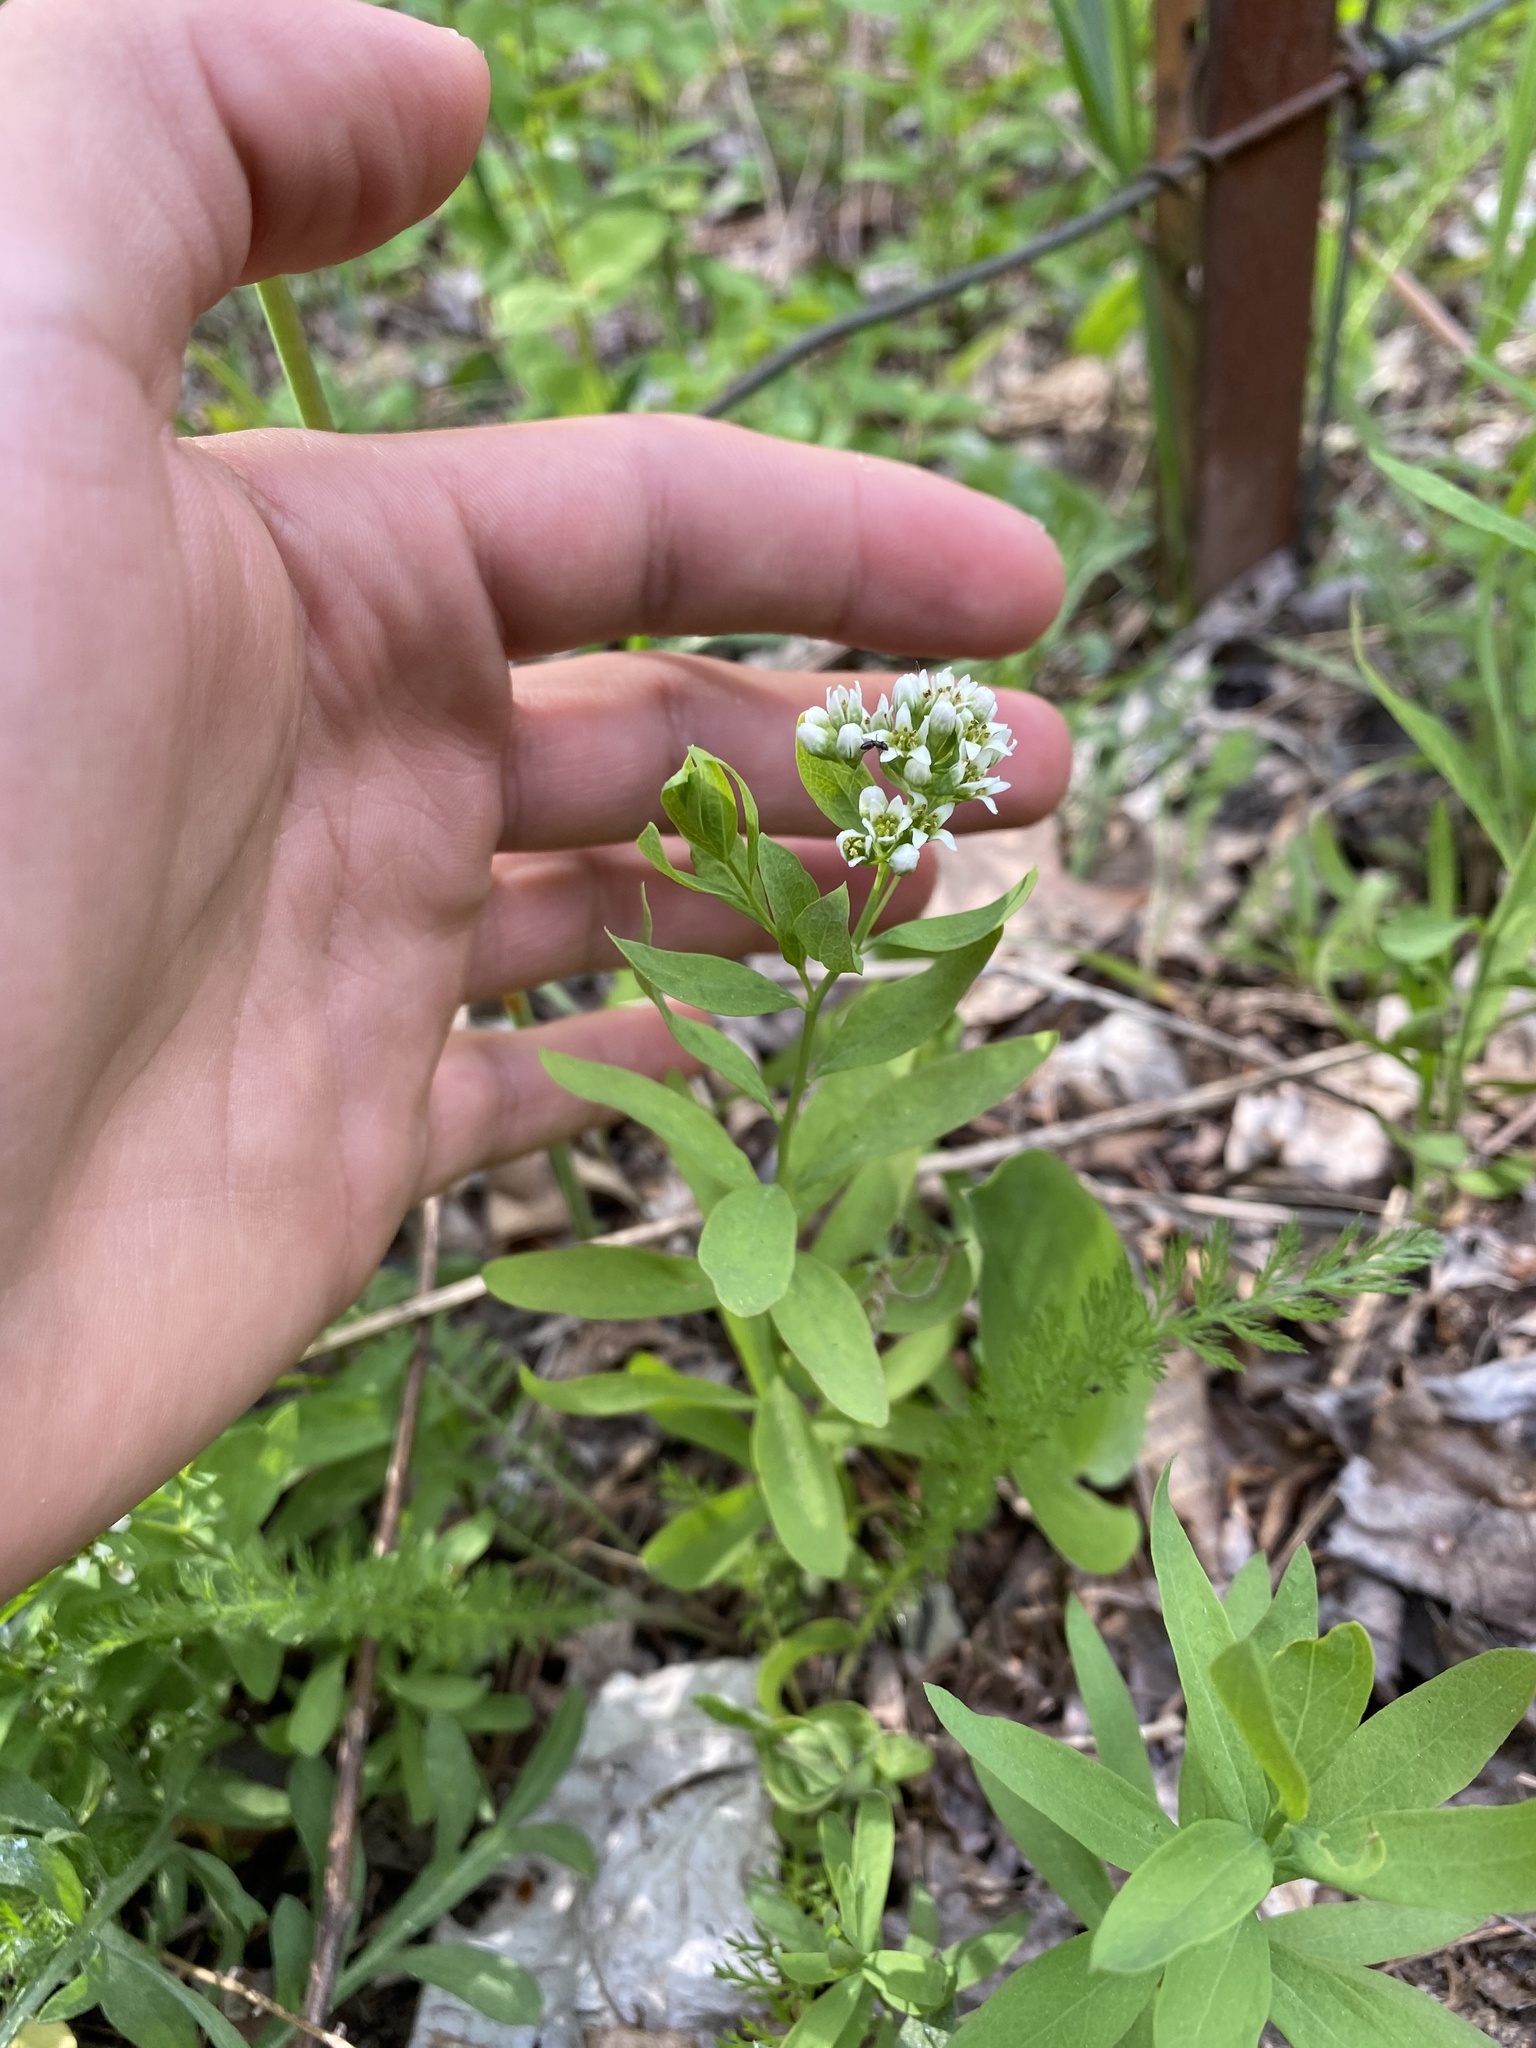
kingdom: Plantae
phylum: Tracheophyta
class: Magnoliopsida
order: Santalales
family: Comandraceae
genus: Comandra
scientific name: Comandra umbellata
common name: Bastard toadflax
